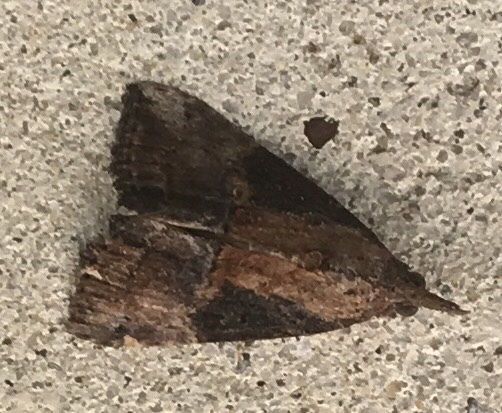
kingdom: Animalia
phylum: Arthropoda
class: Insecta
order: Lepidoptera
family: Erebidae
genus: Hypena
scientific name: Hypena scabra
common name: Green cloverworm
